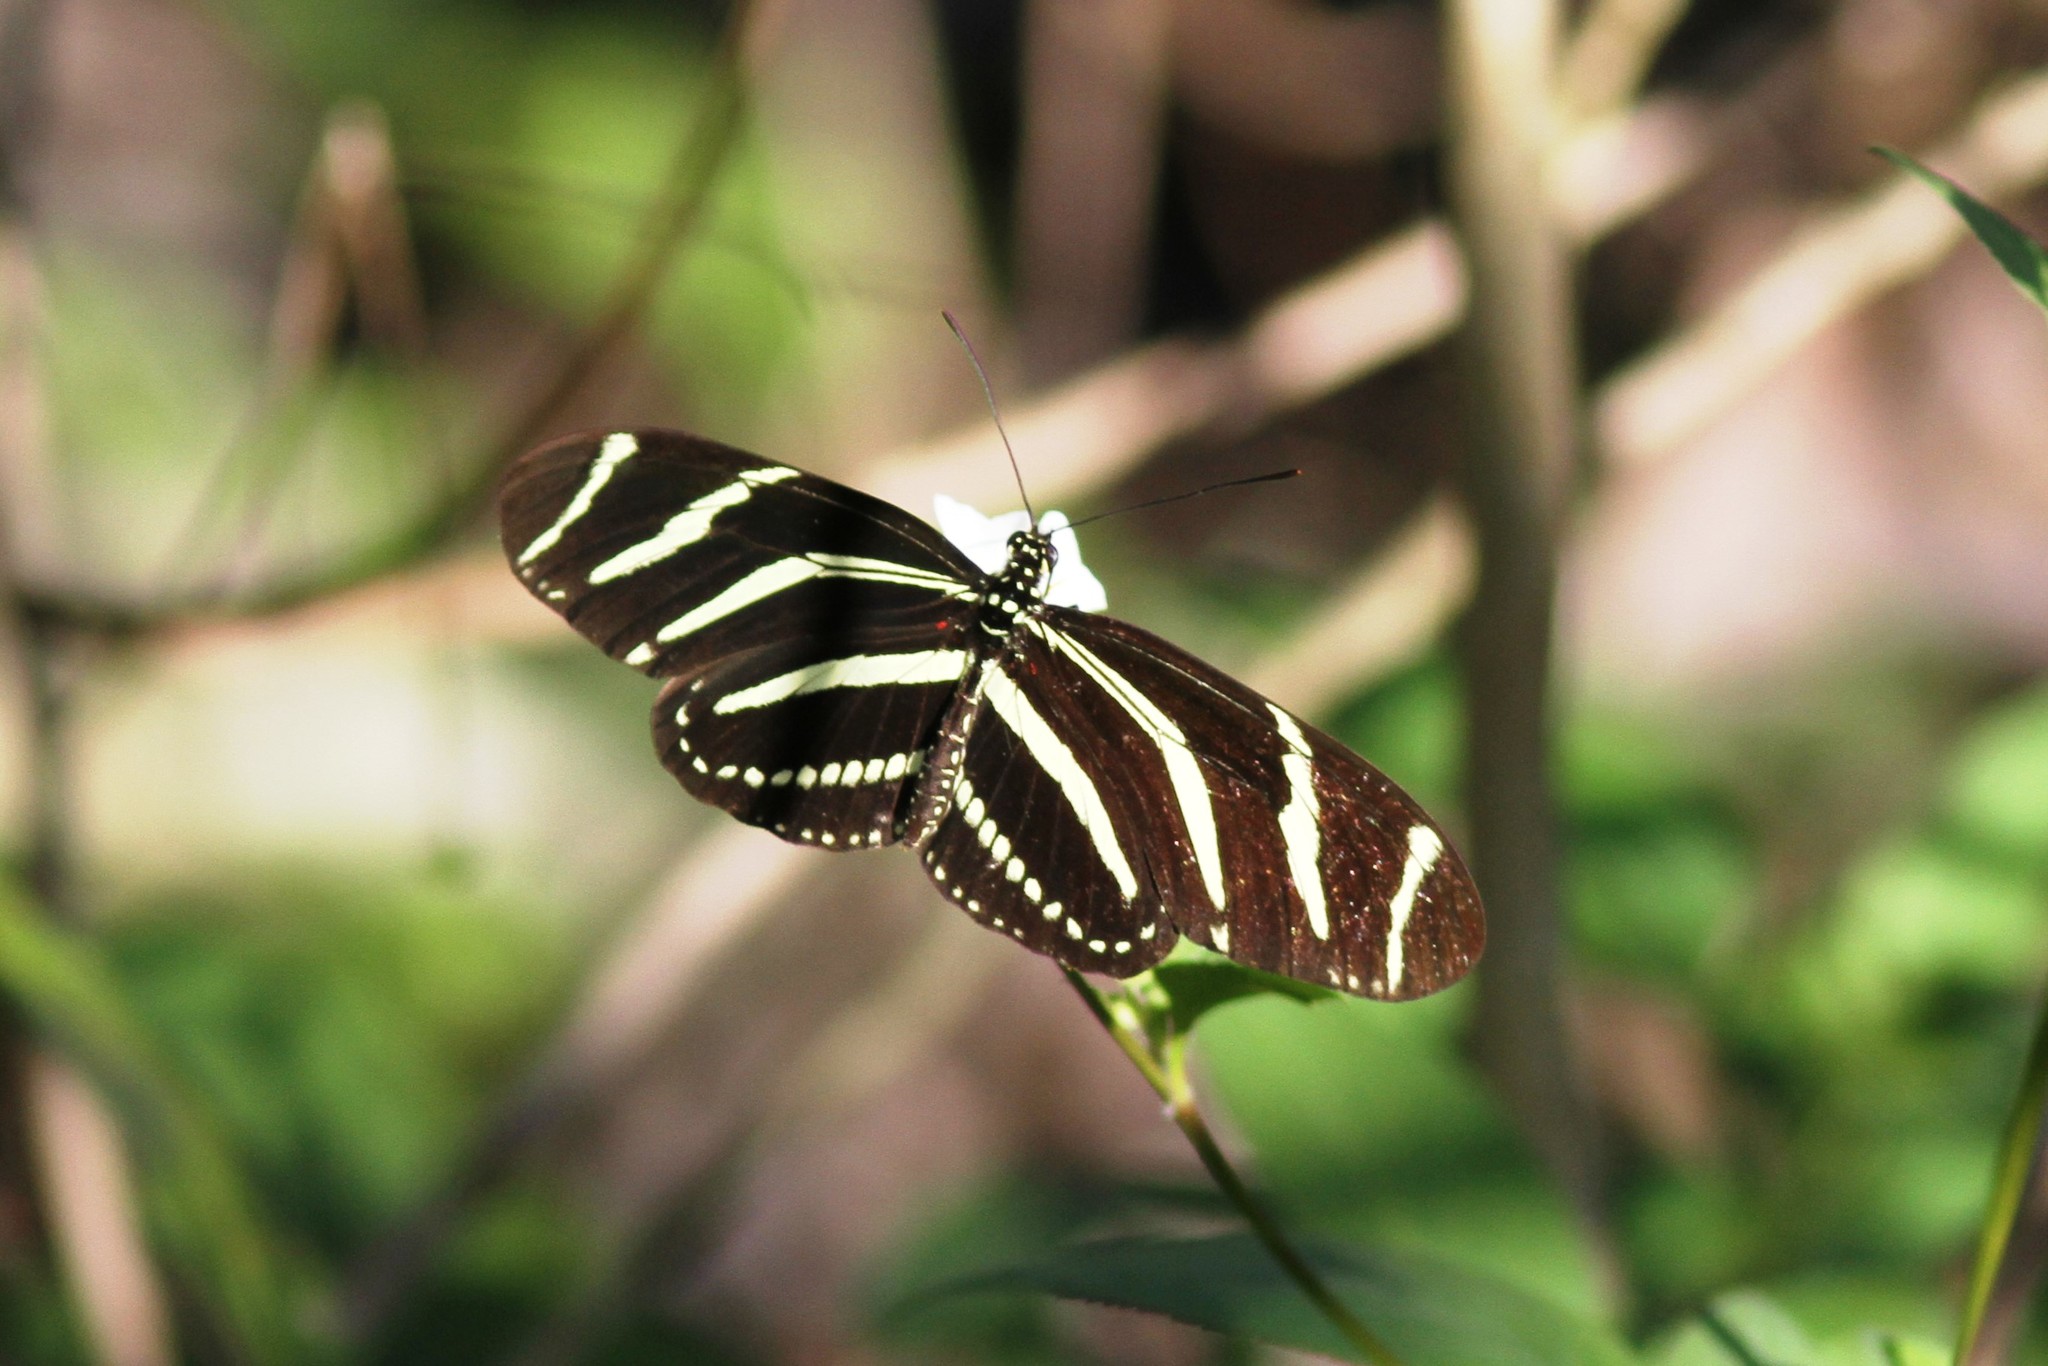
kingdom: Animalia
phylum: Arthropoda
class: Insecta
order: Lepidoptera
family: Nymphalidae
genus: Heliconius
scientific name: Heliconius charithonia
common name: Zebra long wing
